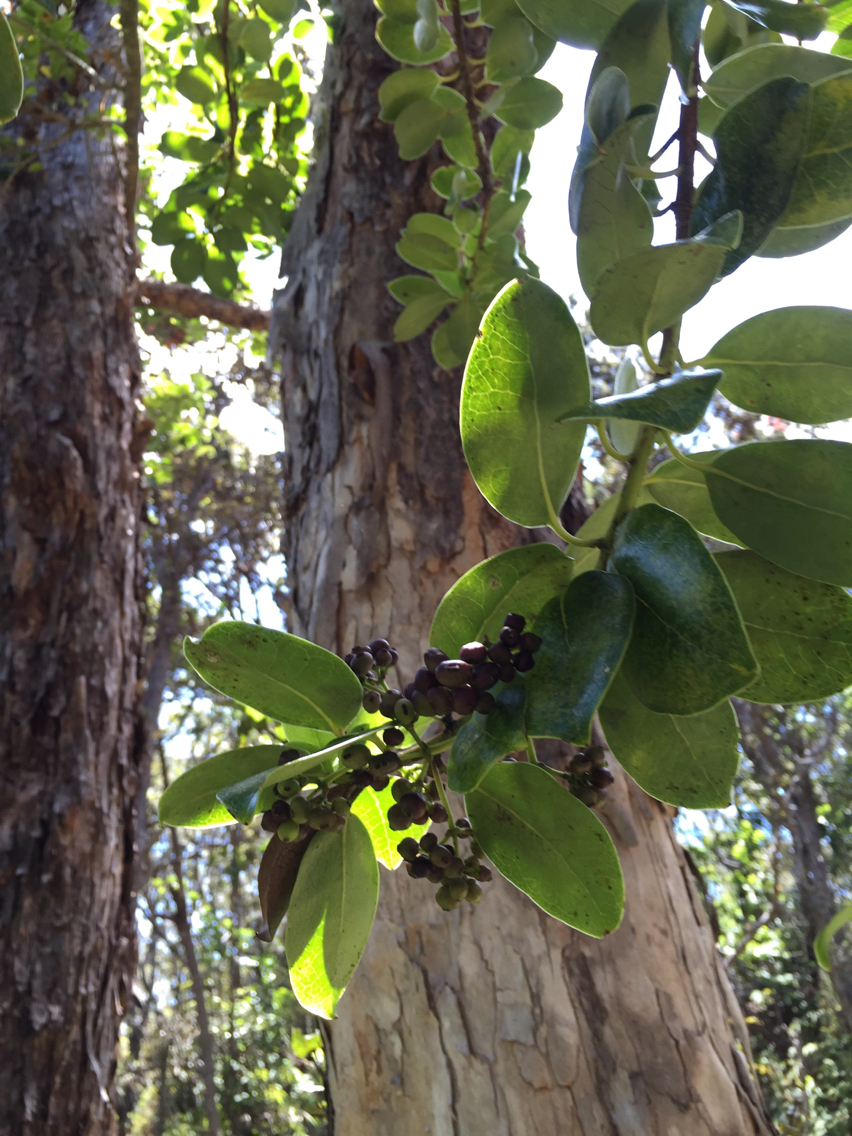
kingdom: Plantae
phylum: Tracheophyta
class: Magnoliopsida
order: Aquifoliales
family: Aquifoliaceae
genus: Ilex
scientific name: Ilex anomala
